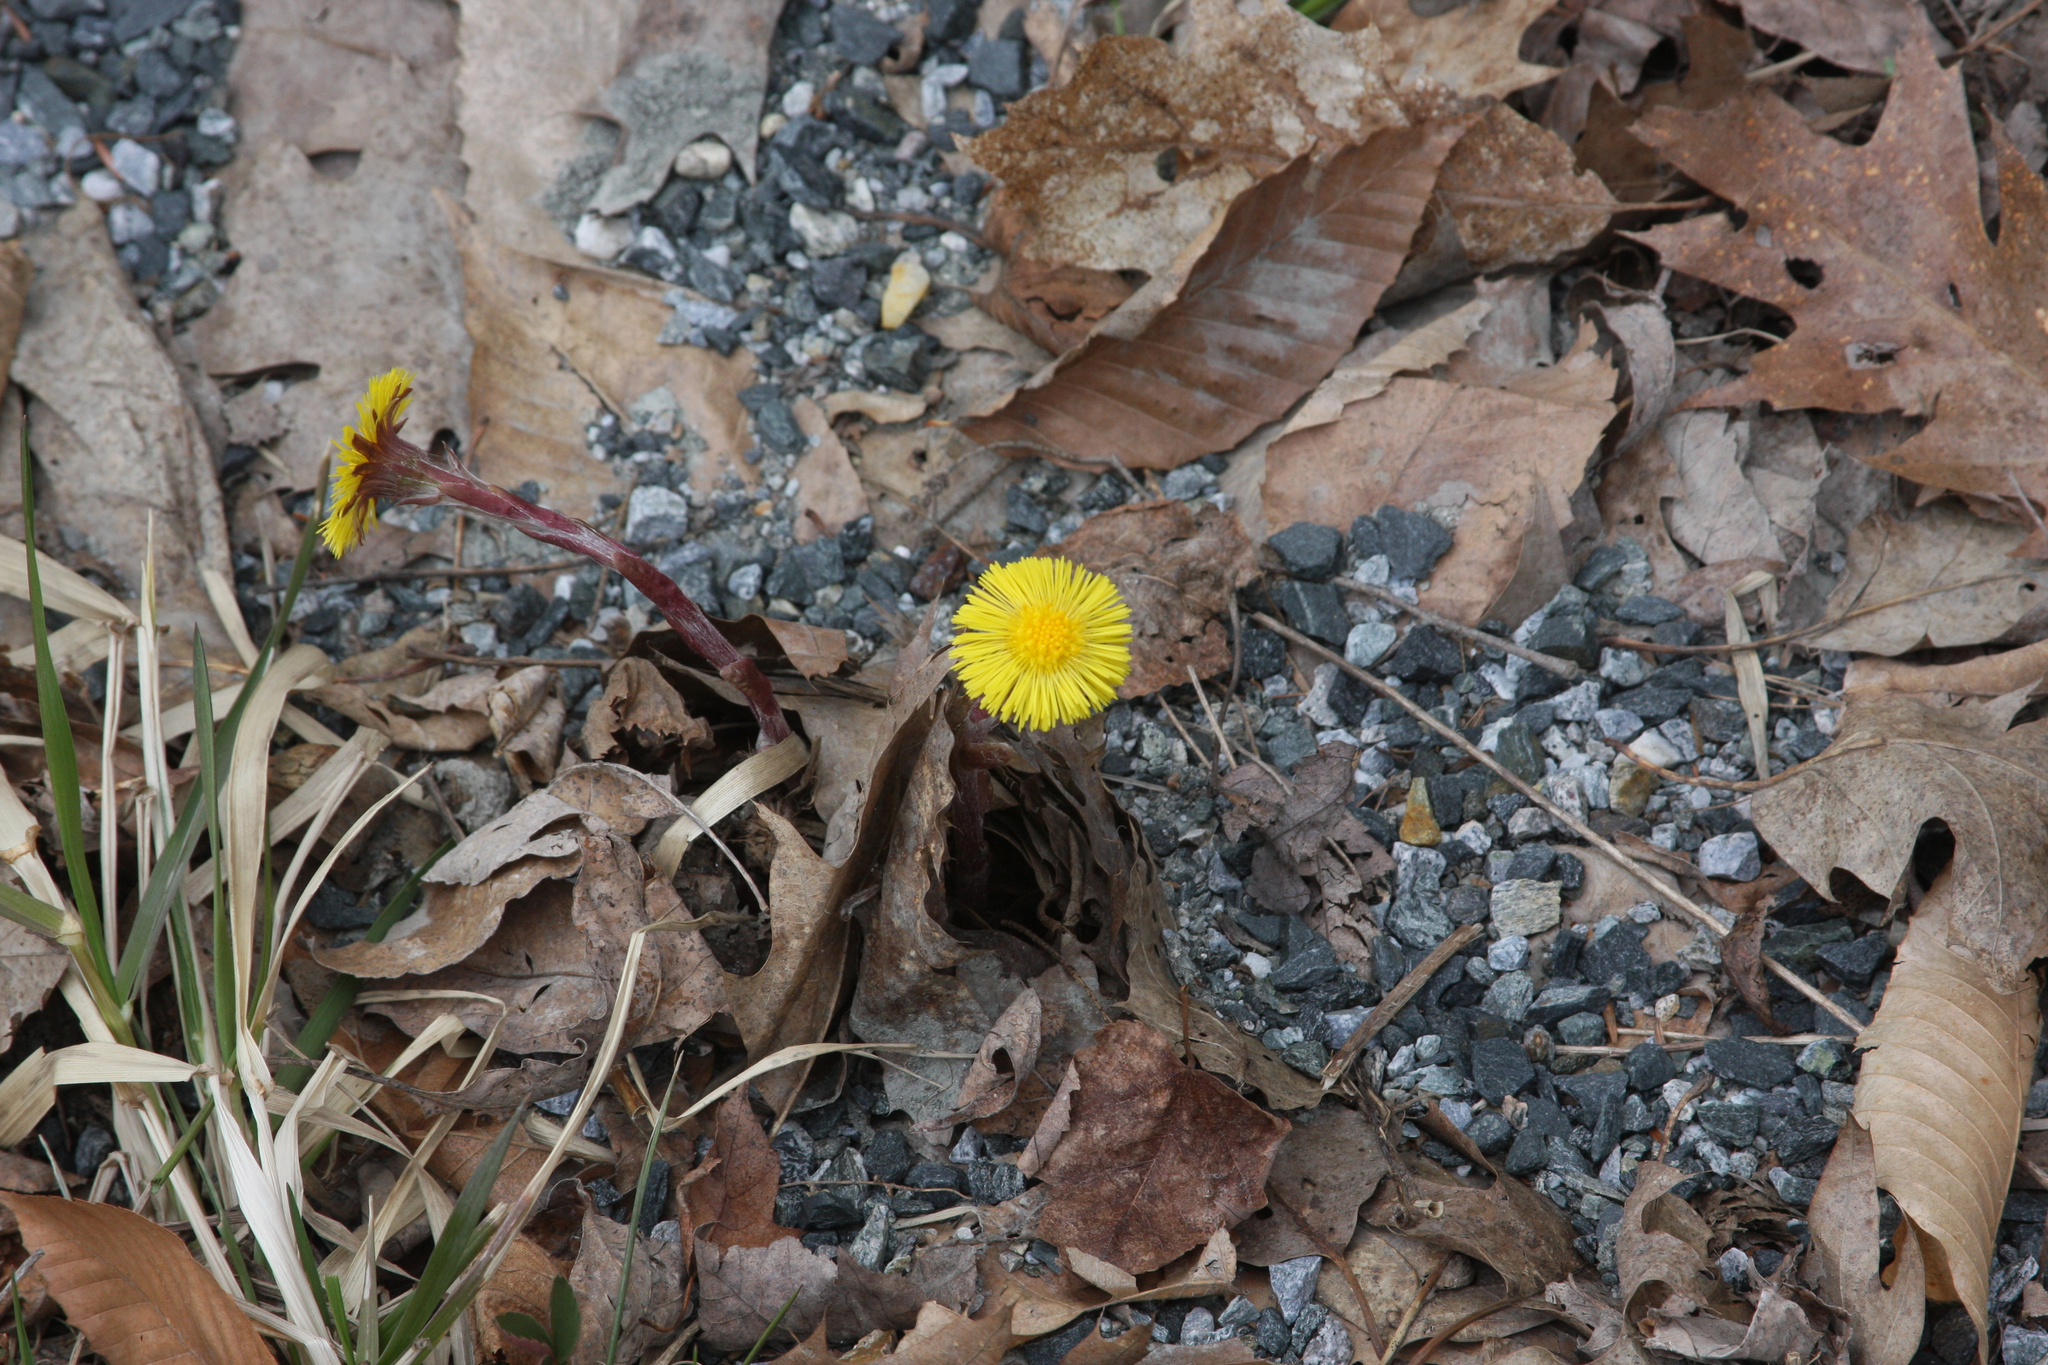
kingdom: Plantae
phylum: Tracheophyta
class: Magnoliopsida
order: Asterales
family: Asteraceae
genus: Tussilago
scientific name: Tussilago farfara
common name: Coltsfoot
